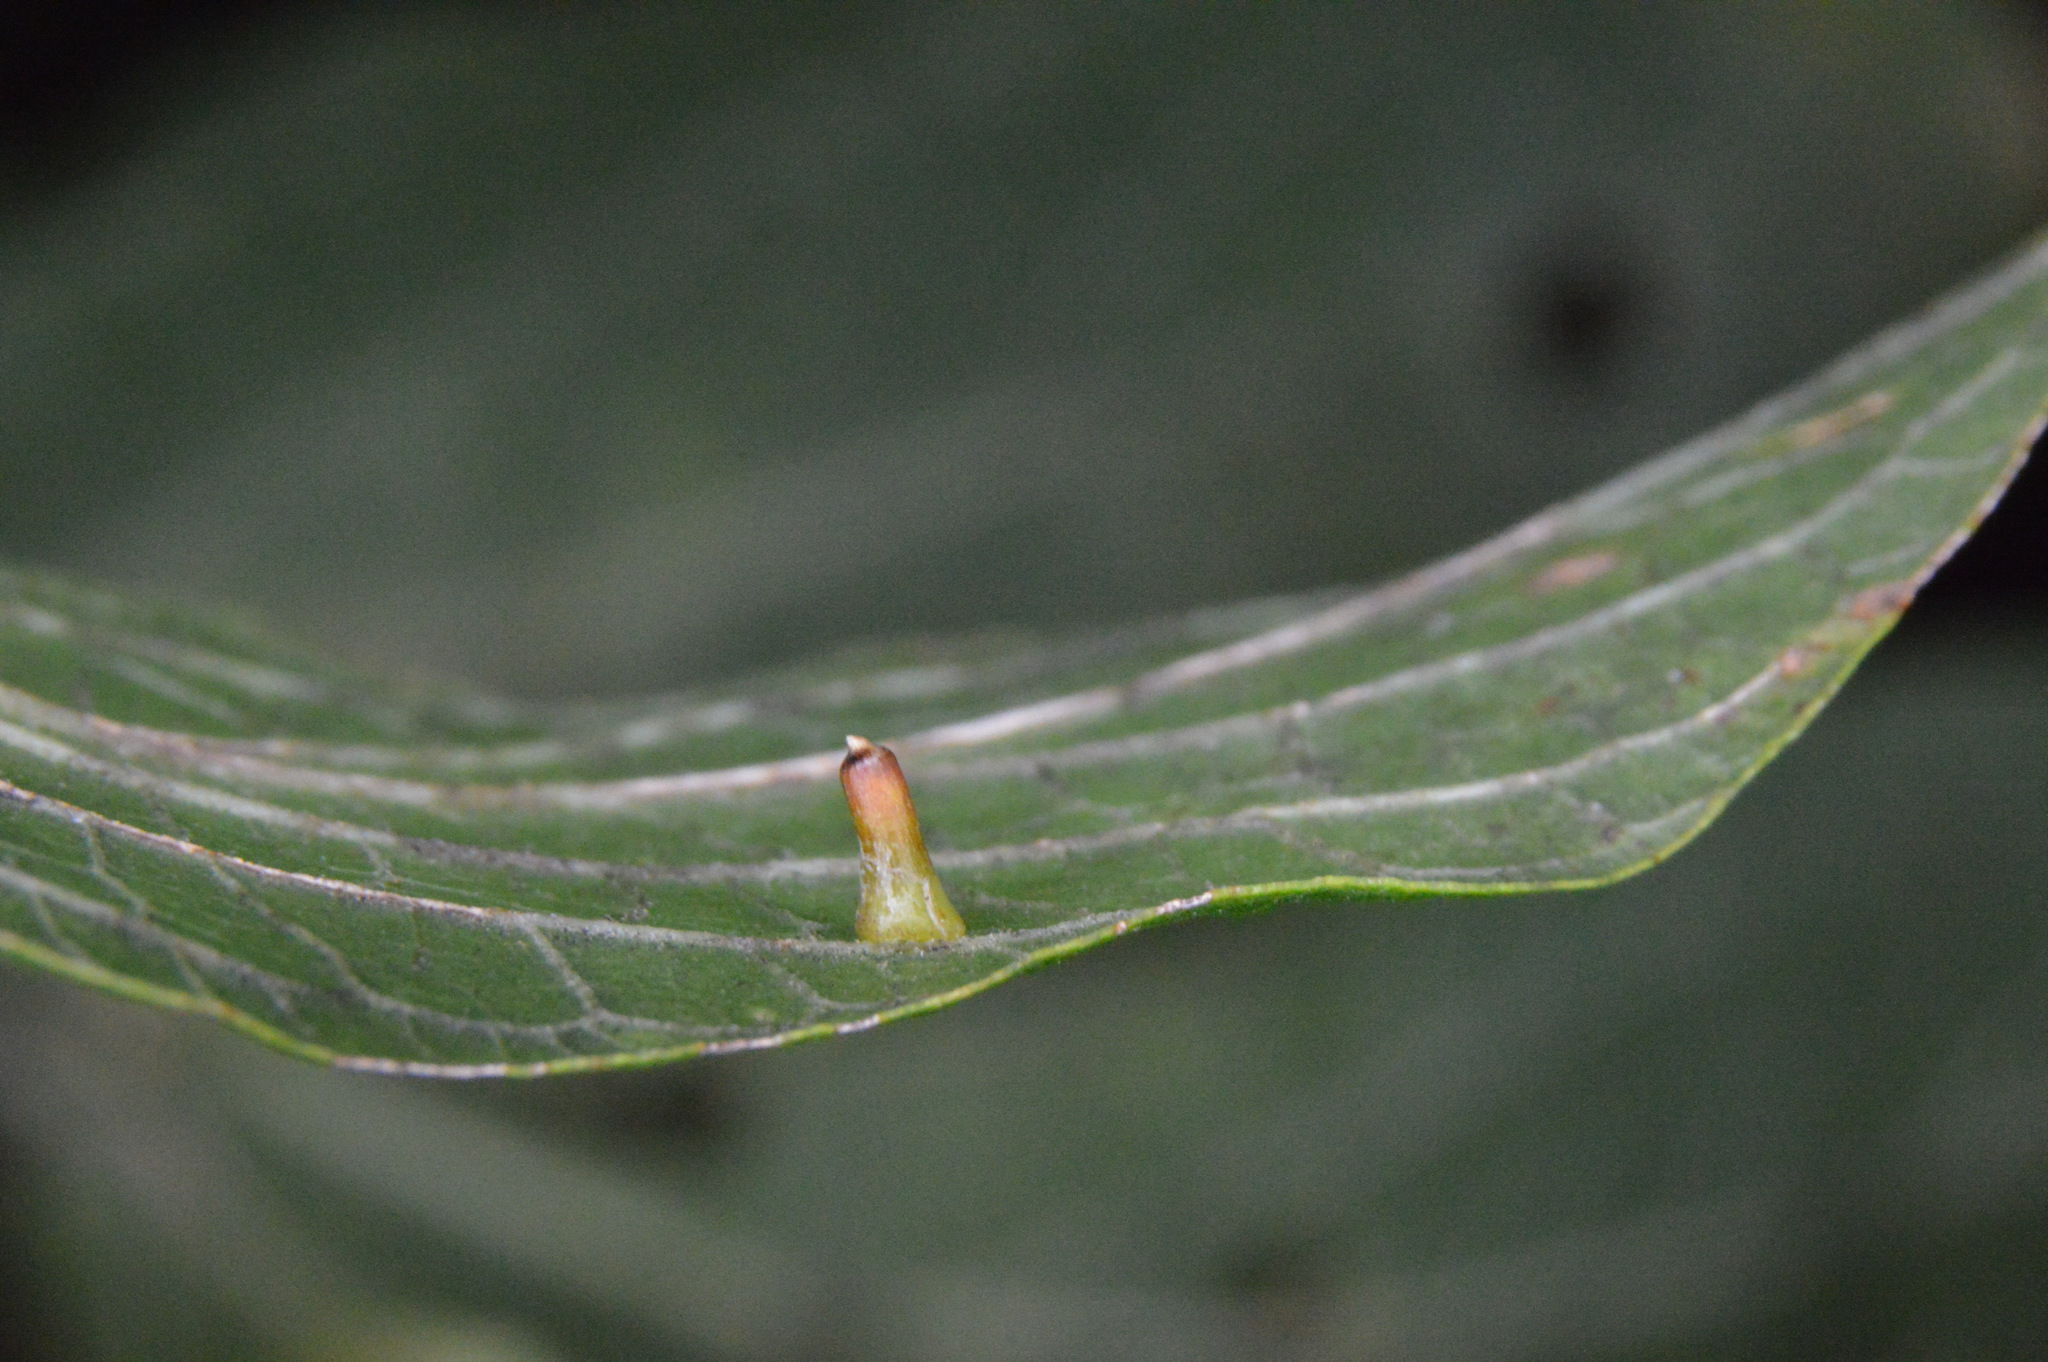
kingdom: Animalia
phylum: Arthropoda
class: Insecta
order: Diptera
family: Cecidomyiidae
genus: Celticecis
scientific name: Celticecis aciculata
